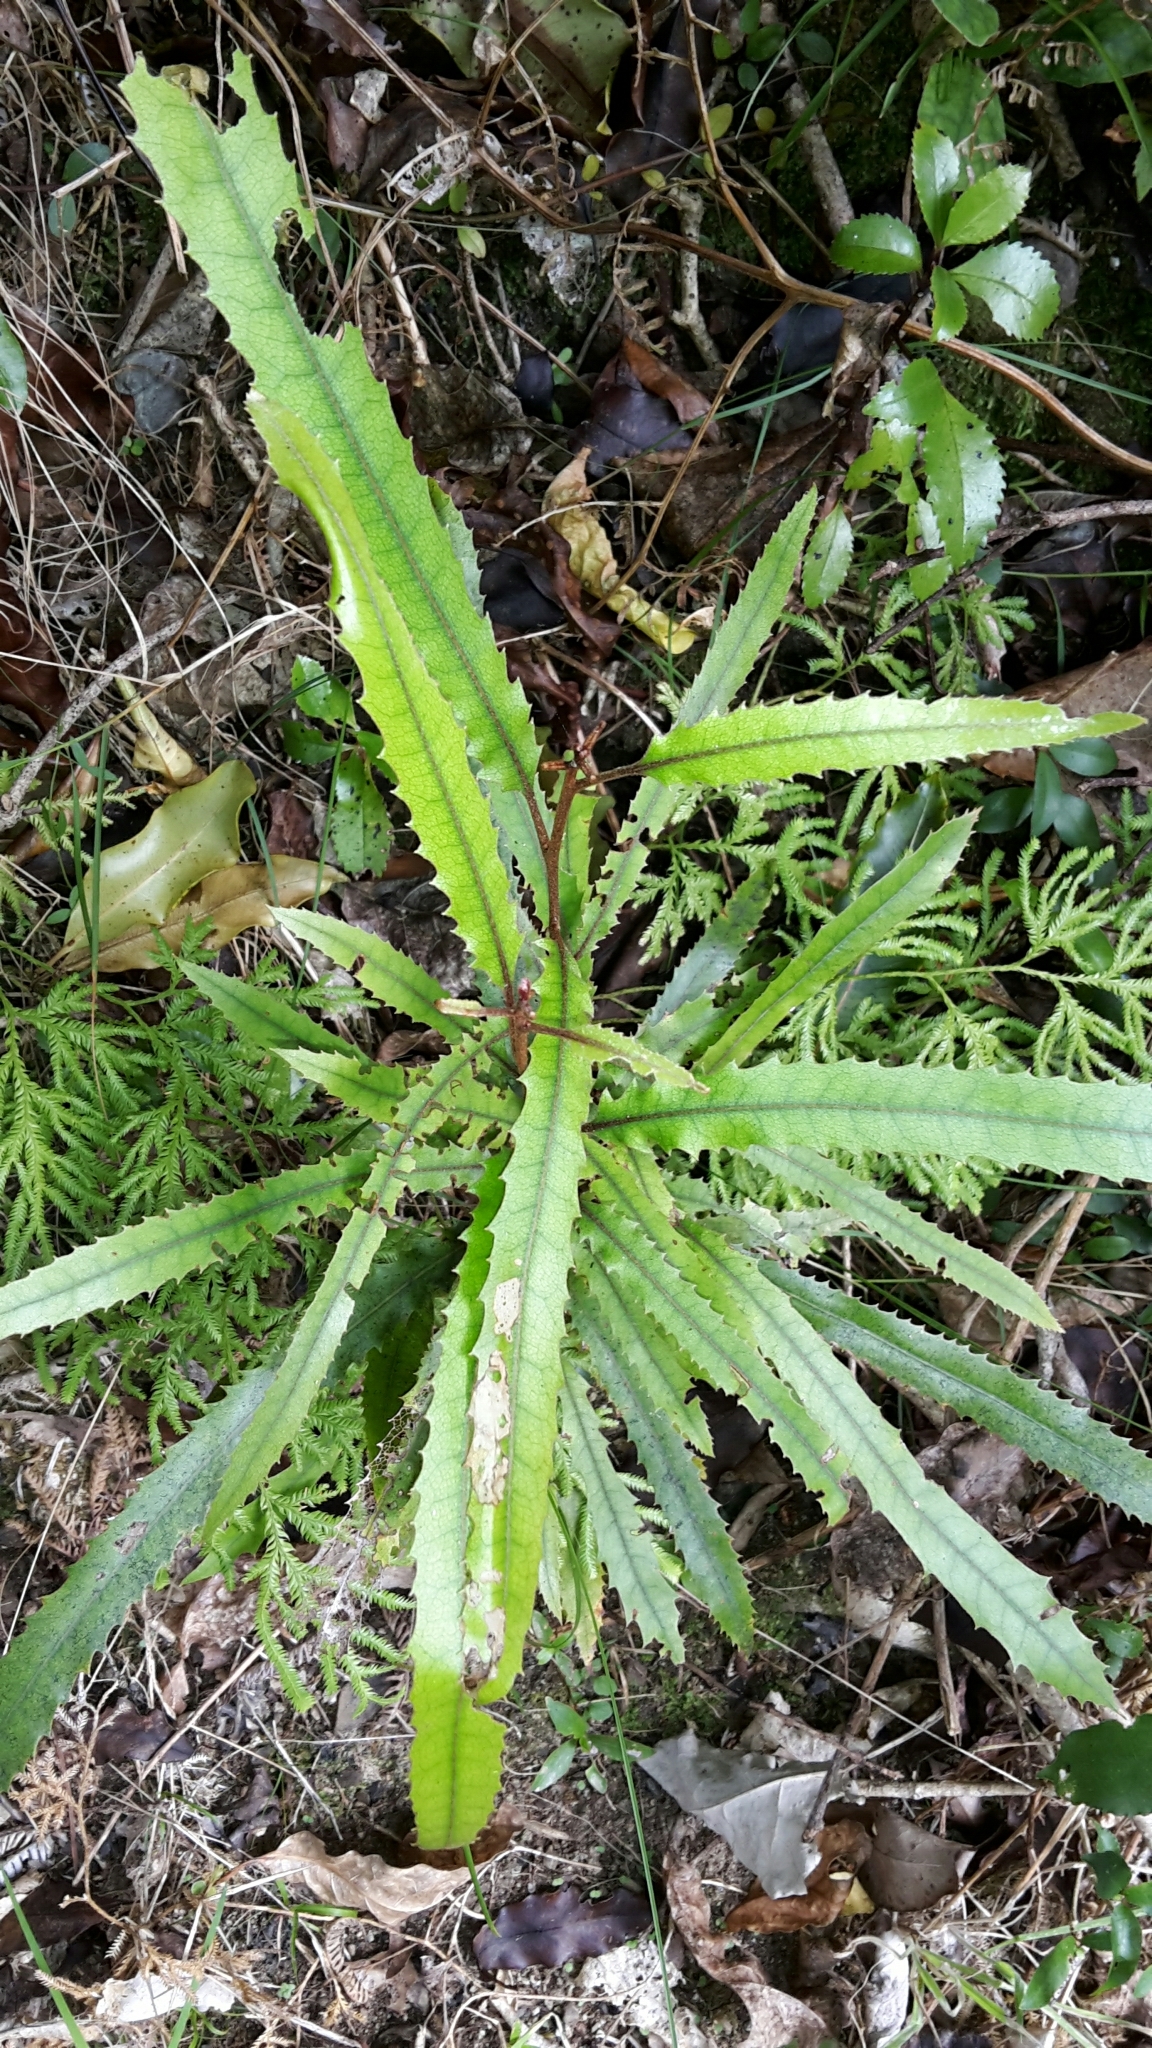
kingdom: Plantae
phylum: Tracheophyta
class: Magnoliopsida
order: Proteales
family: Proteaceae
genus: Knightia
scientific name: Knightia excelsa
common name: New zealand-honeysuckle
